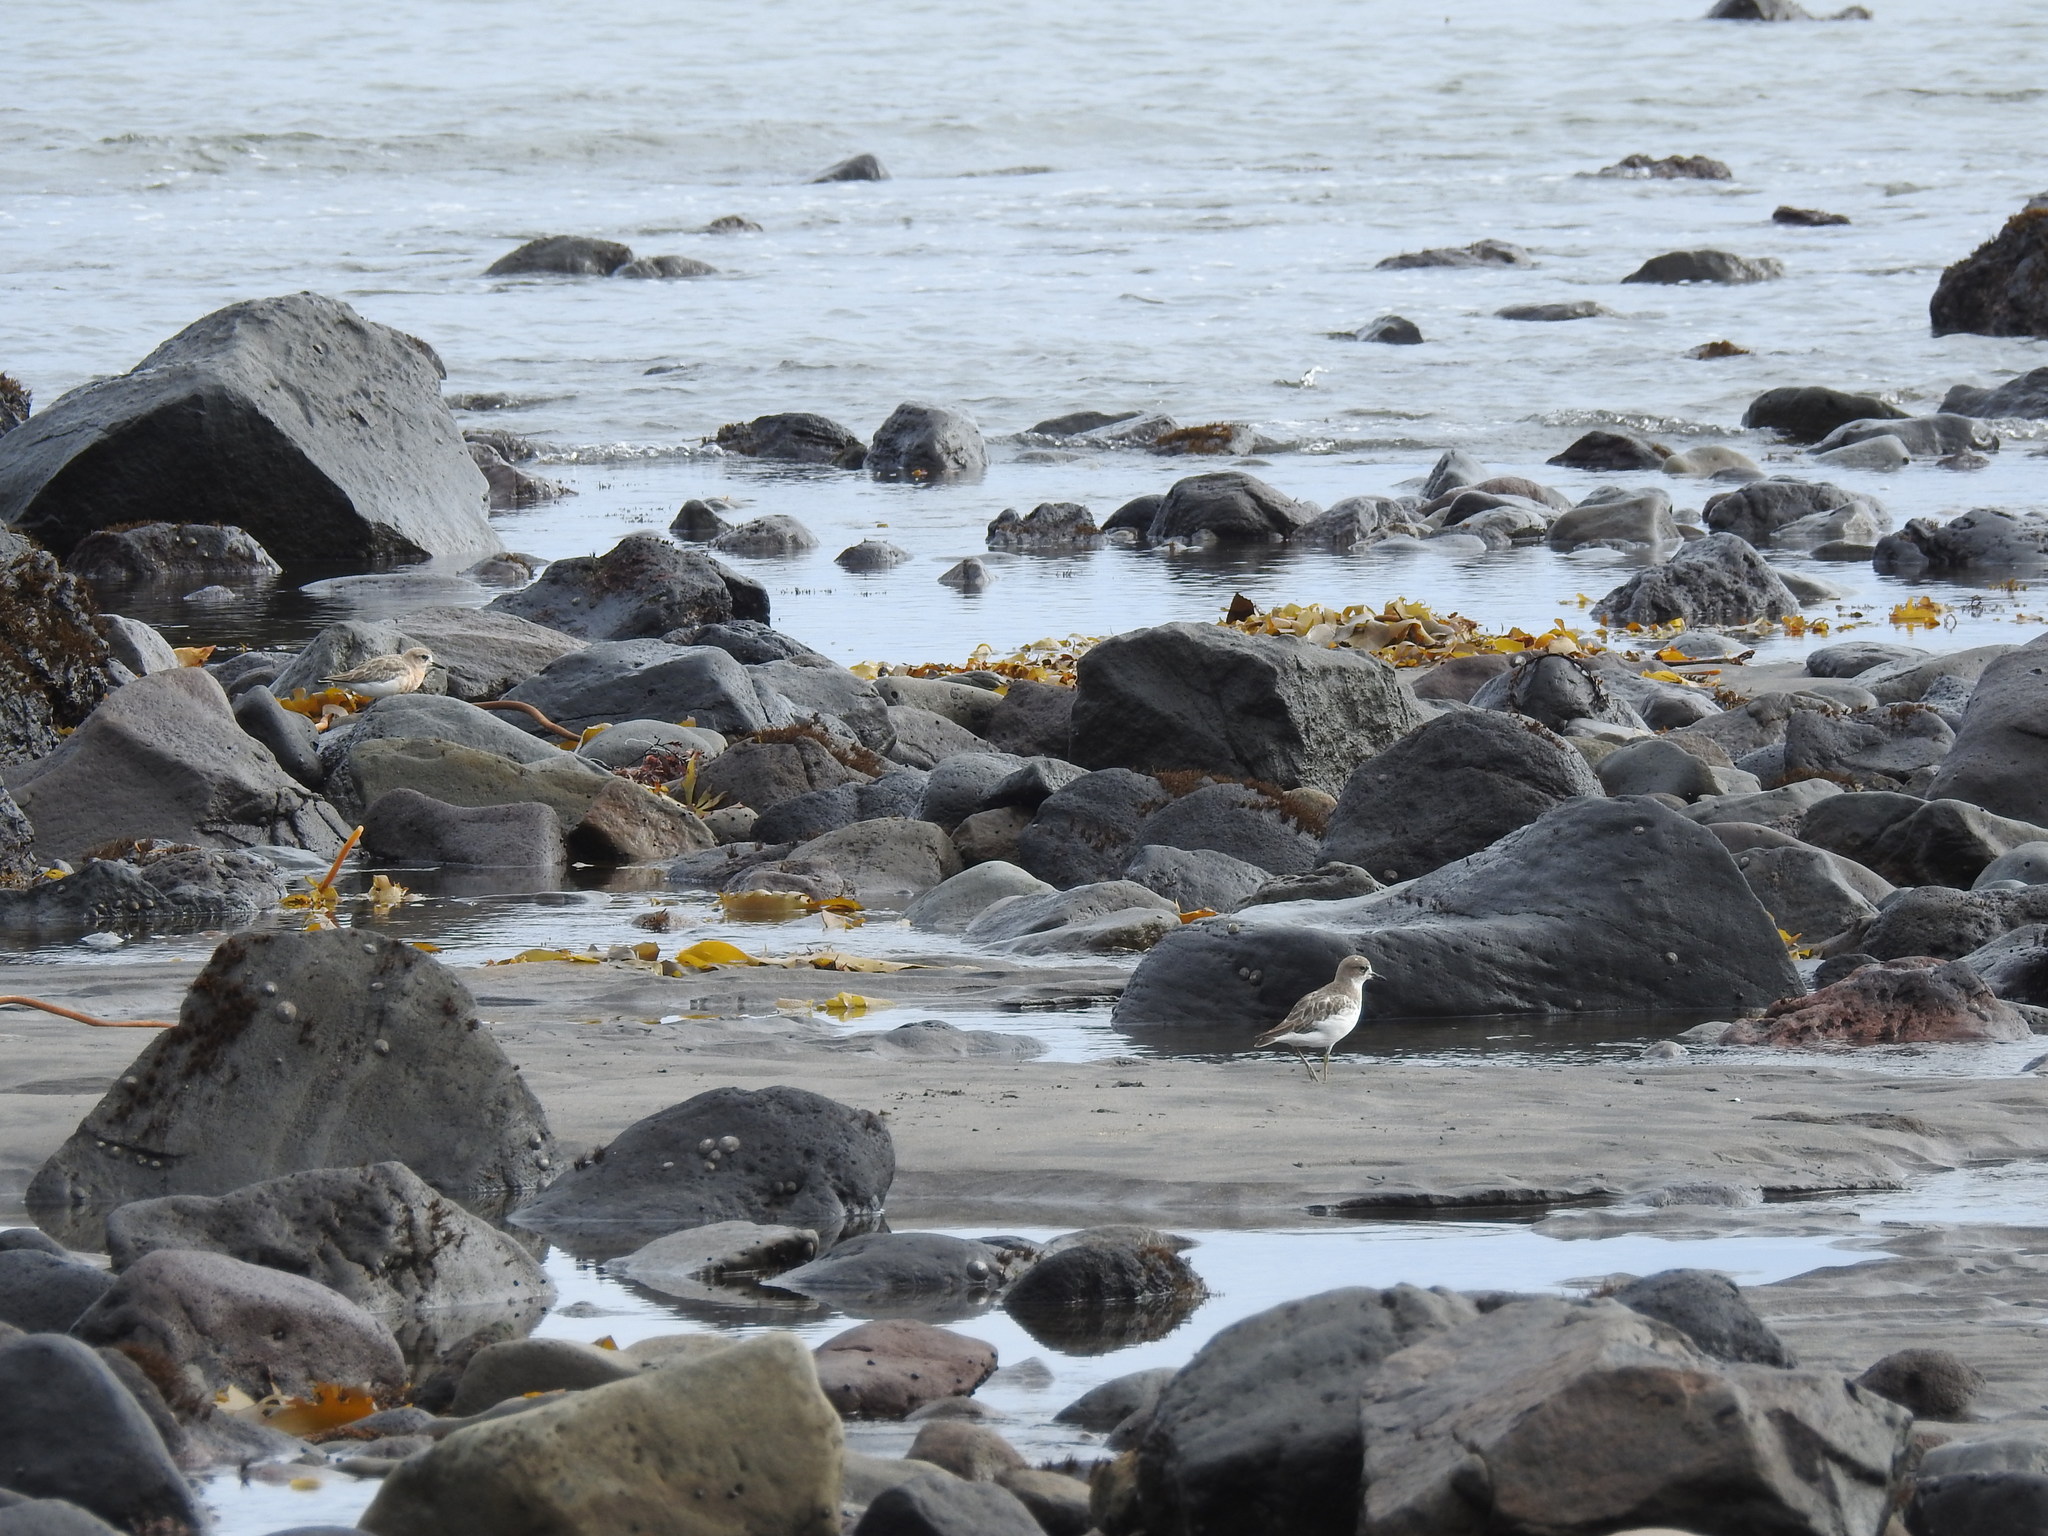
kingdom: Animalia
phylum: Chordata
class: Aves
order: Charadriiformes
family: Charadriidae
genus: Anarhynchus
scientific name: Anarhynchus
